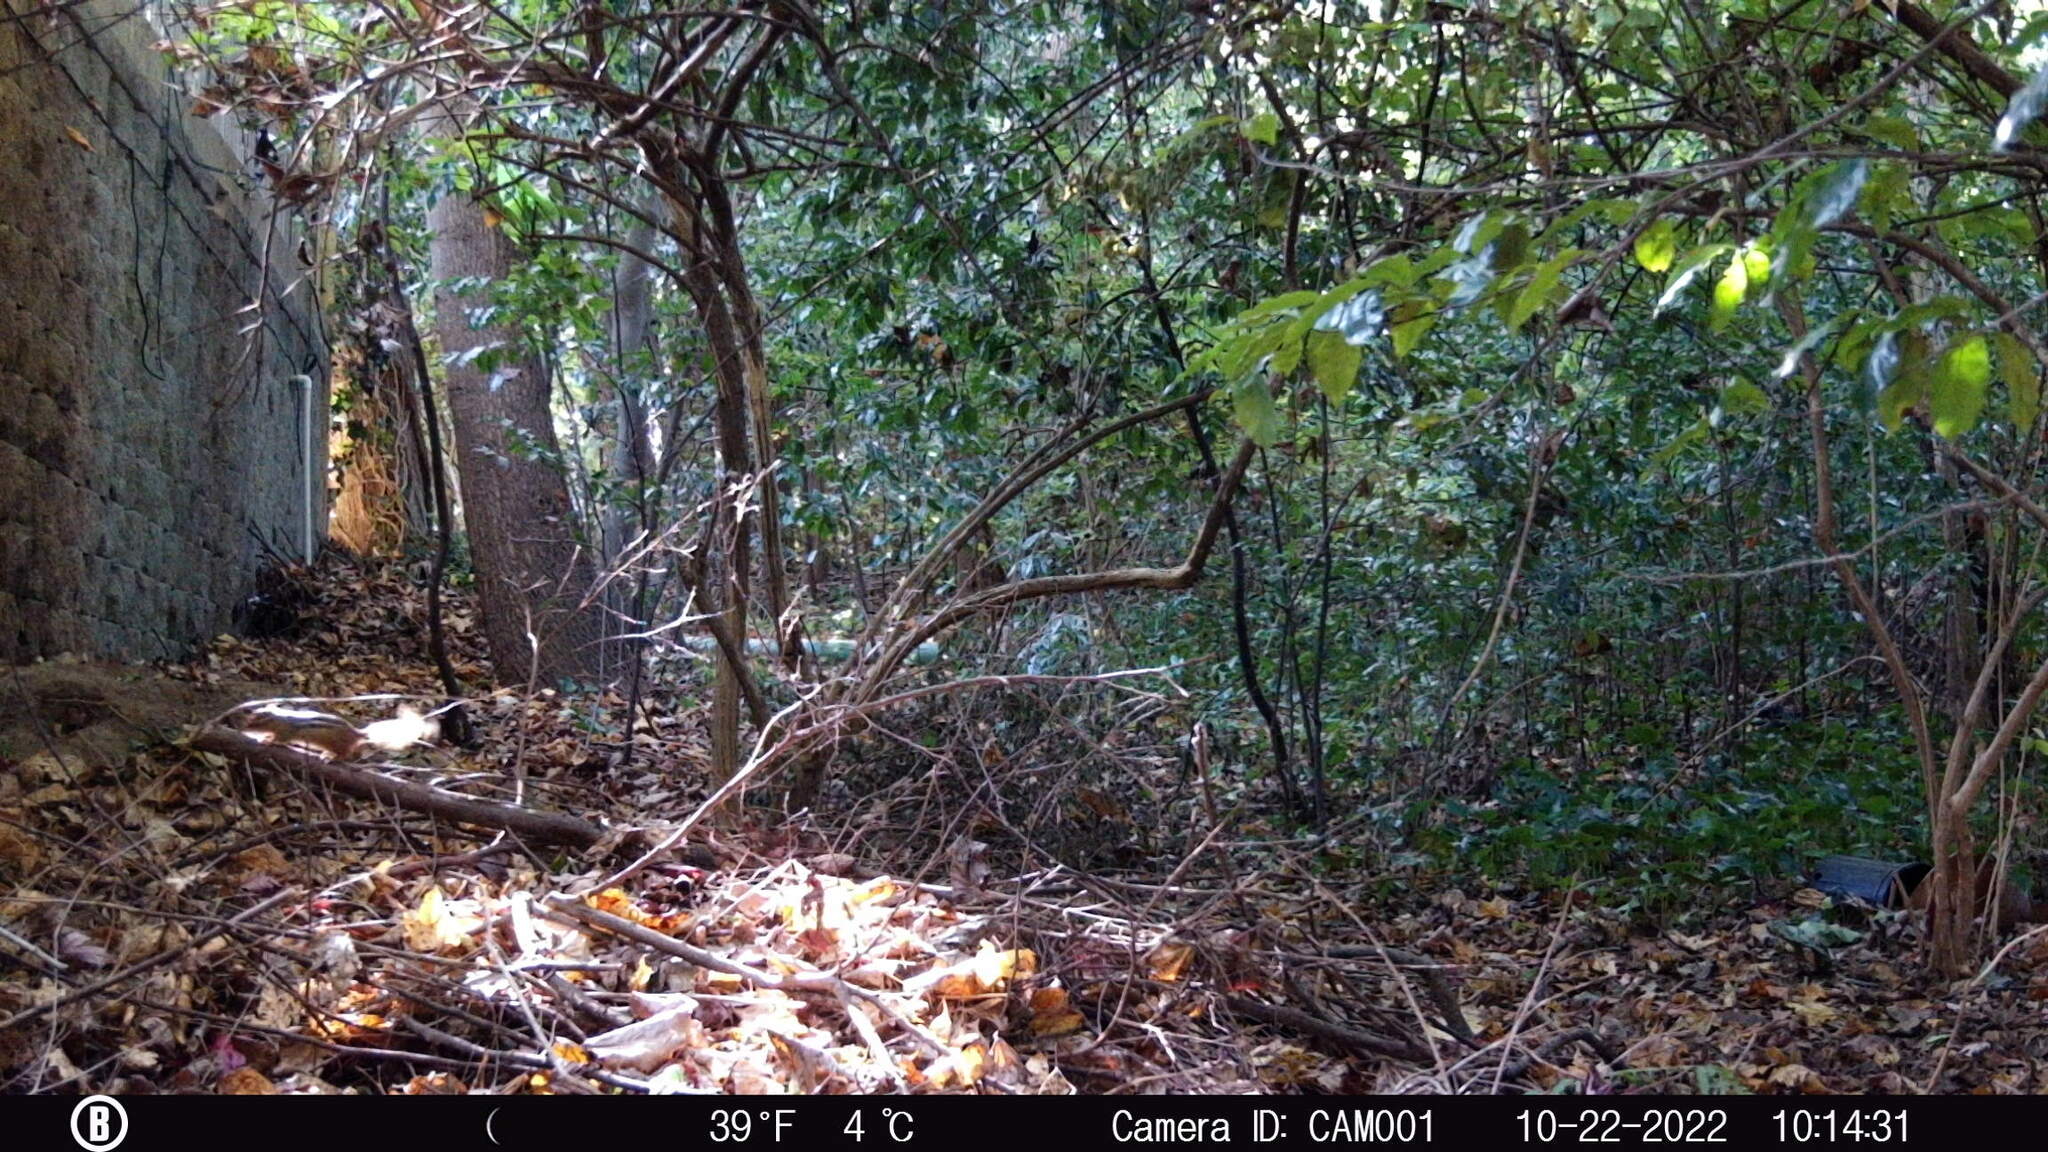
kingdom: Animalia
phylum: Chordata
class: Mammalia
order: Rodentia
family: Sciuridae
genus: Tamias
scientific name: Tamias striatus
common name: Eastern chipmunk
